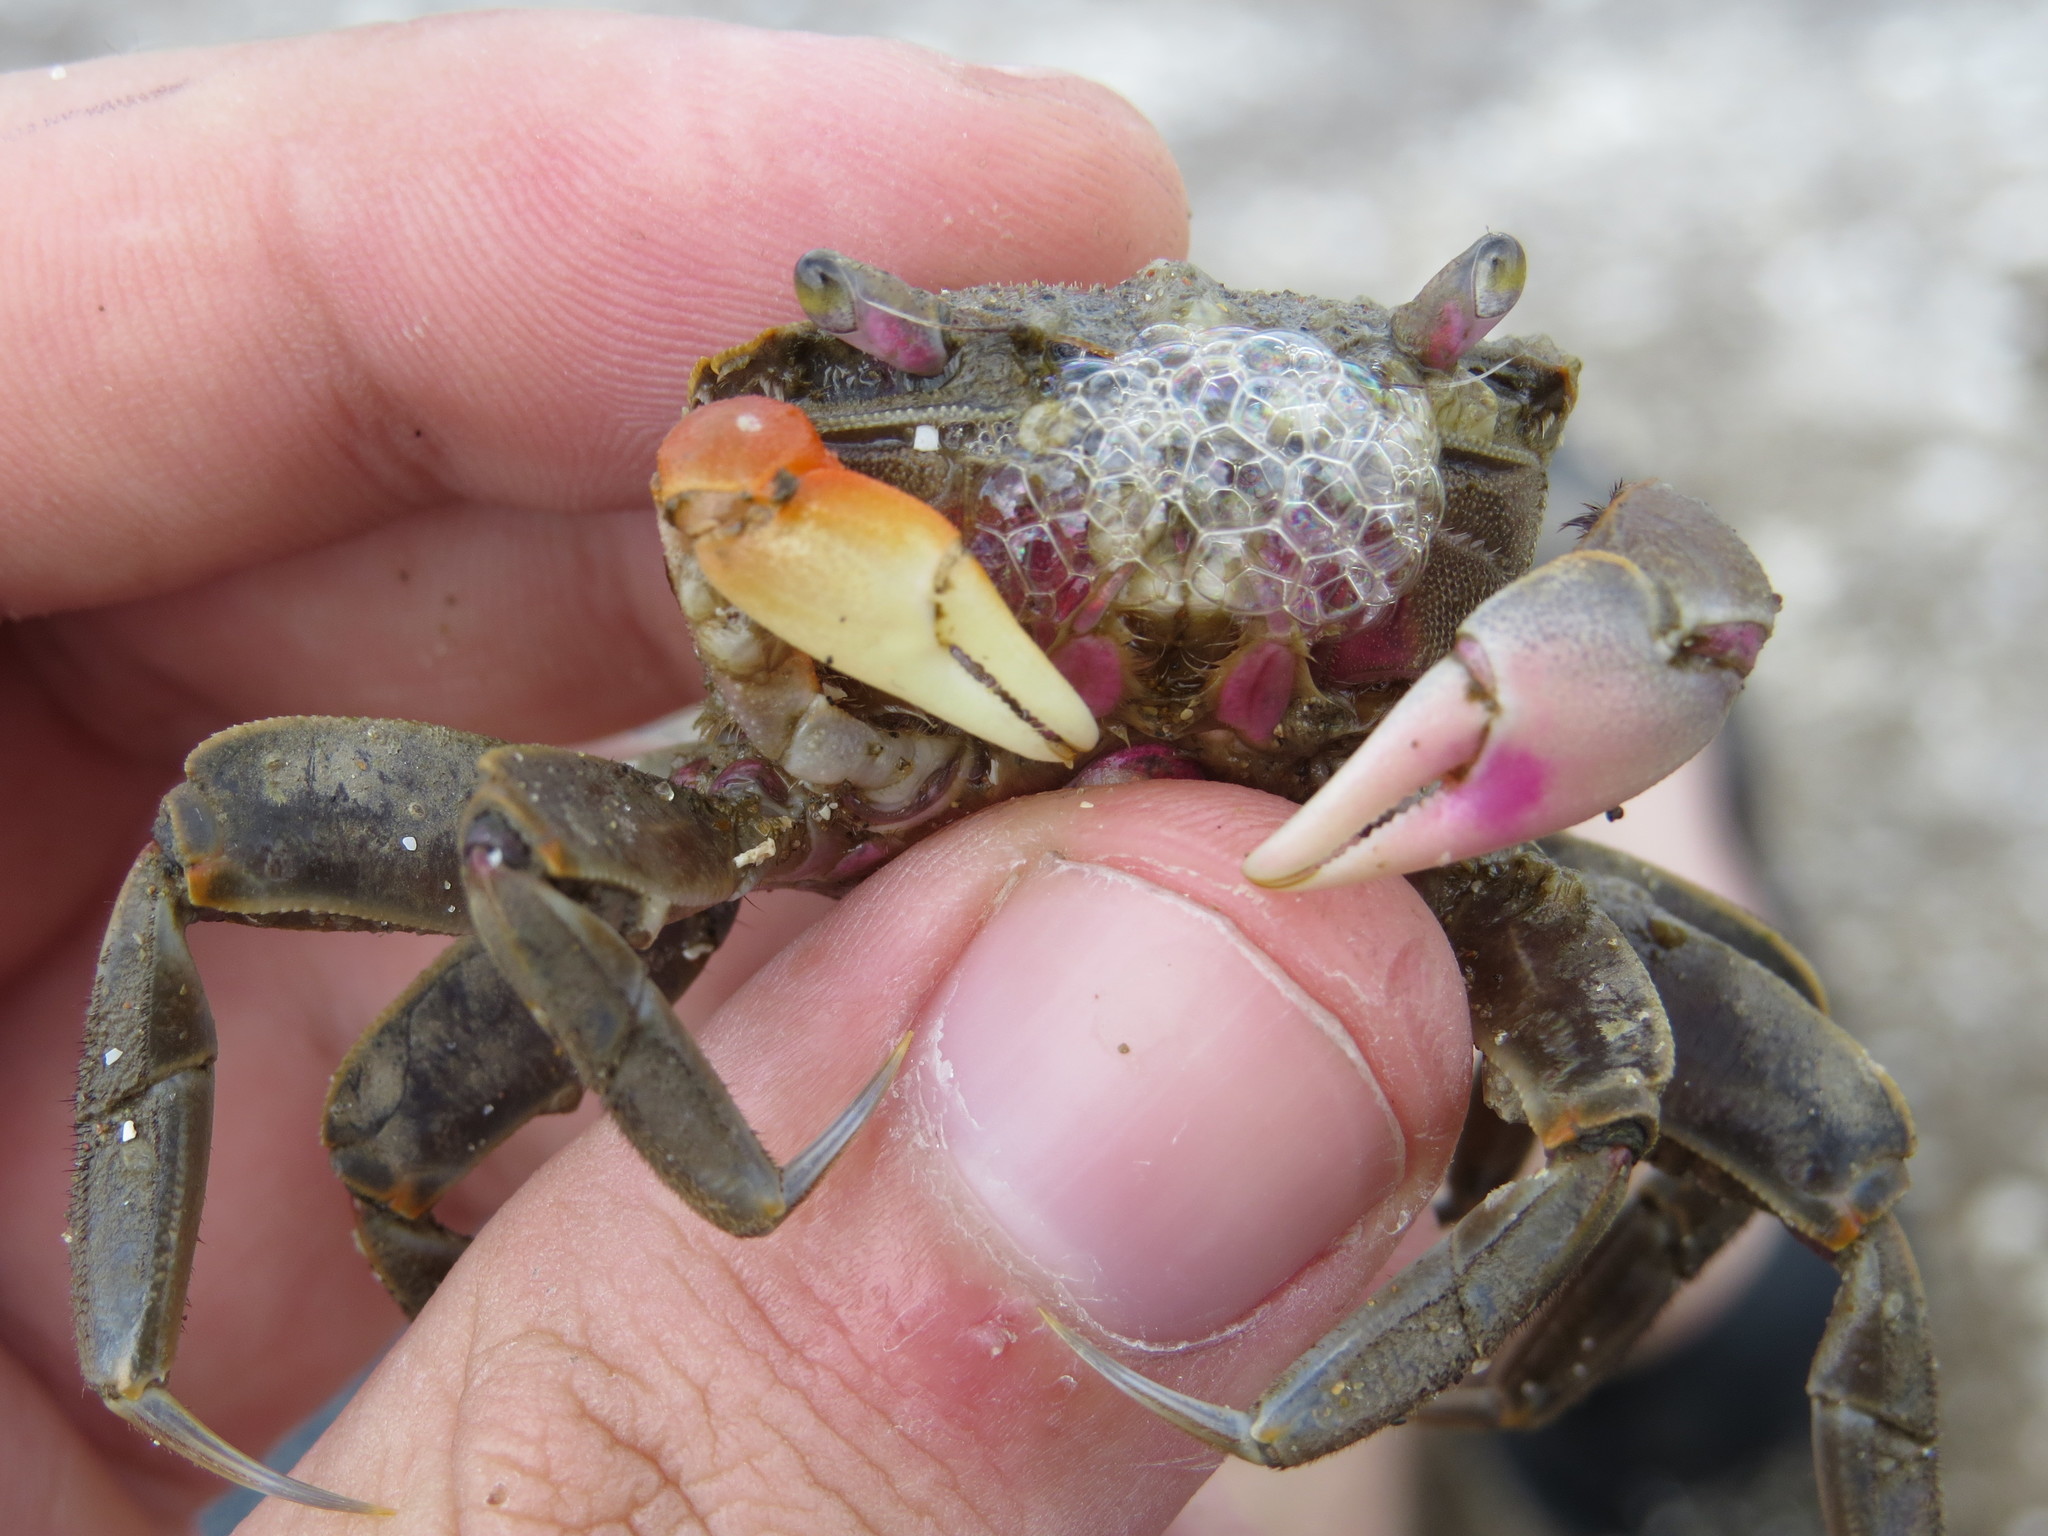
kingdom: Animalia
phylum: Arthropoda
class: Malacostraca
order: Decapoda
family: Varunidae
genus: Neohelice
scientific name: Neohelice granulata
